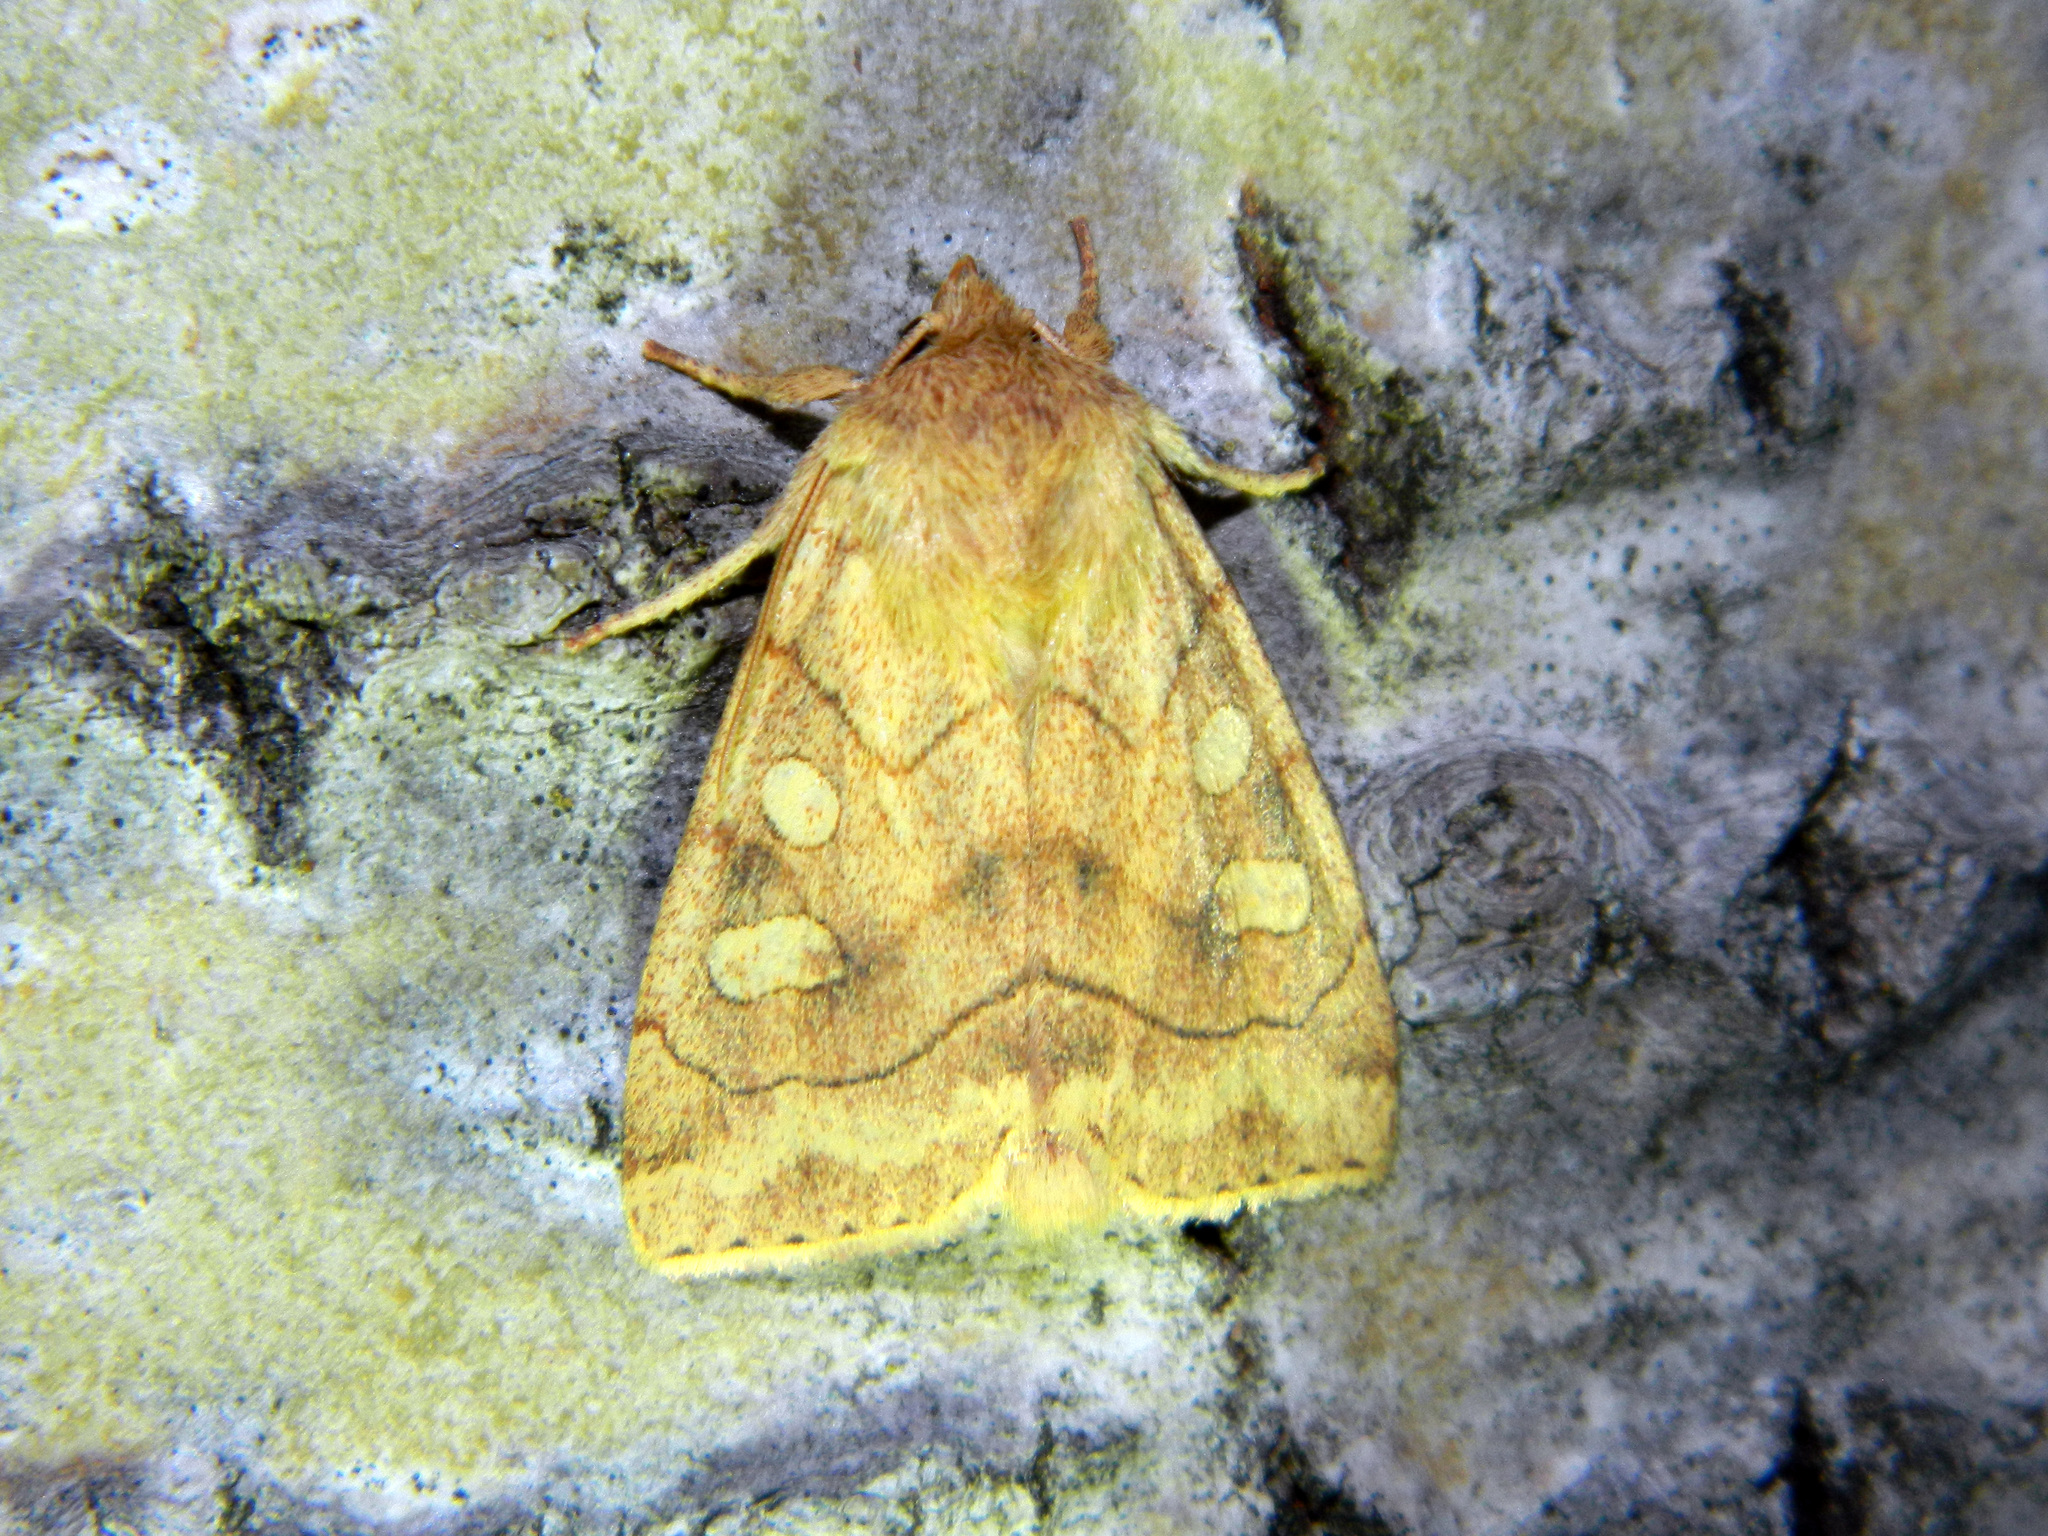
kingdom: Animalia
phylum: Arthropoda
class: Insecta
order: Lepidoptera
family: Noctuidae
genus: Enargia
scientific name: Enargia decolor
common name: Aspen twoleaf tier moth
